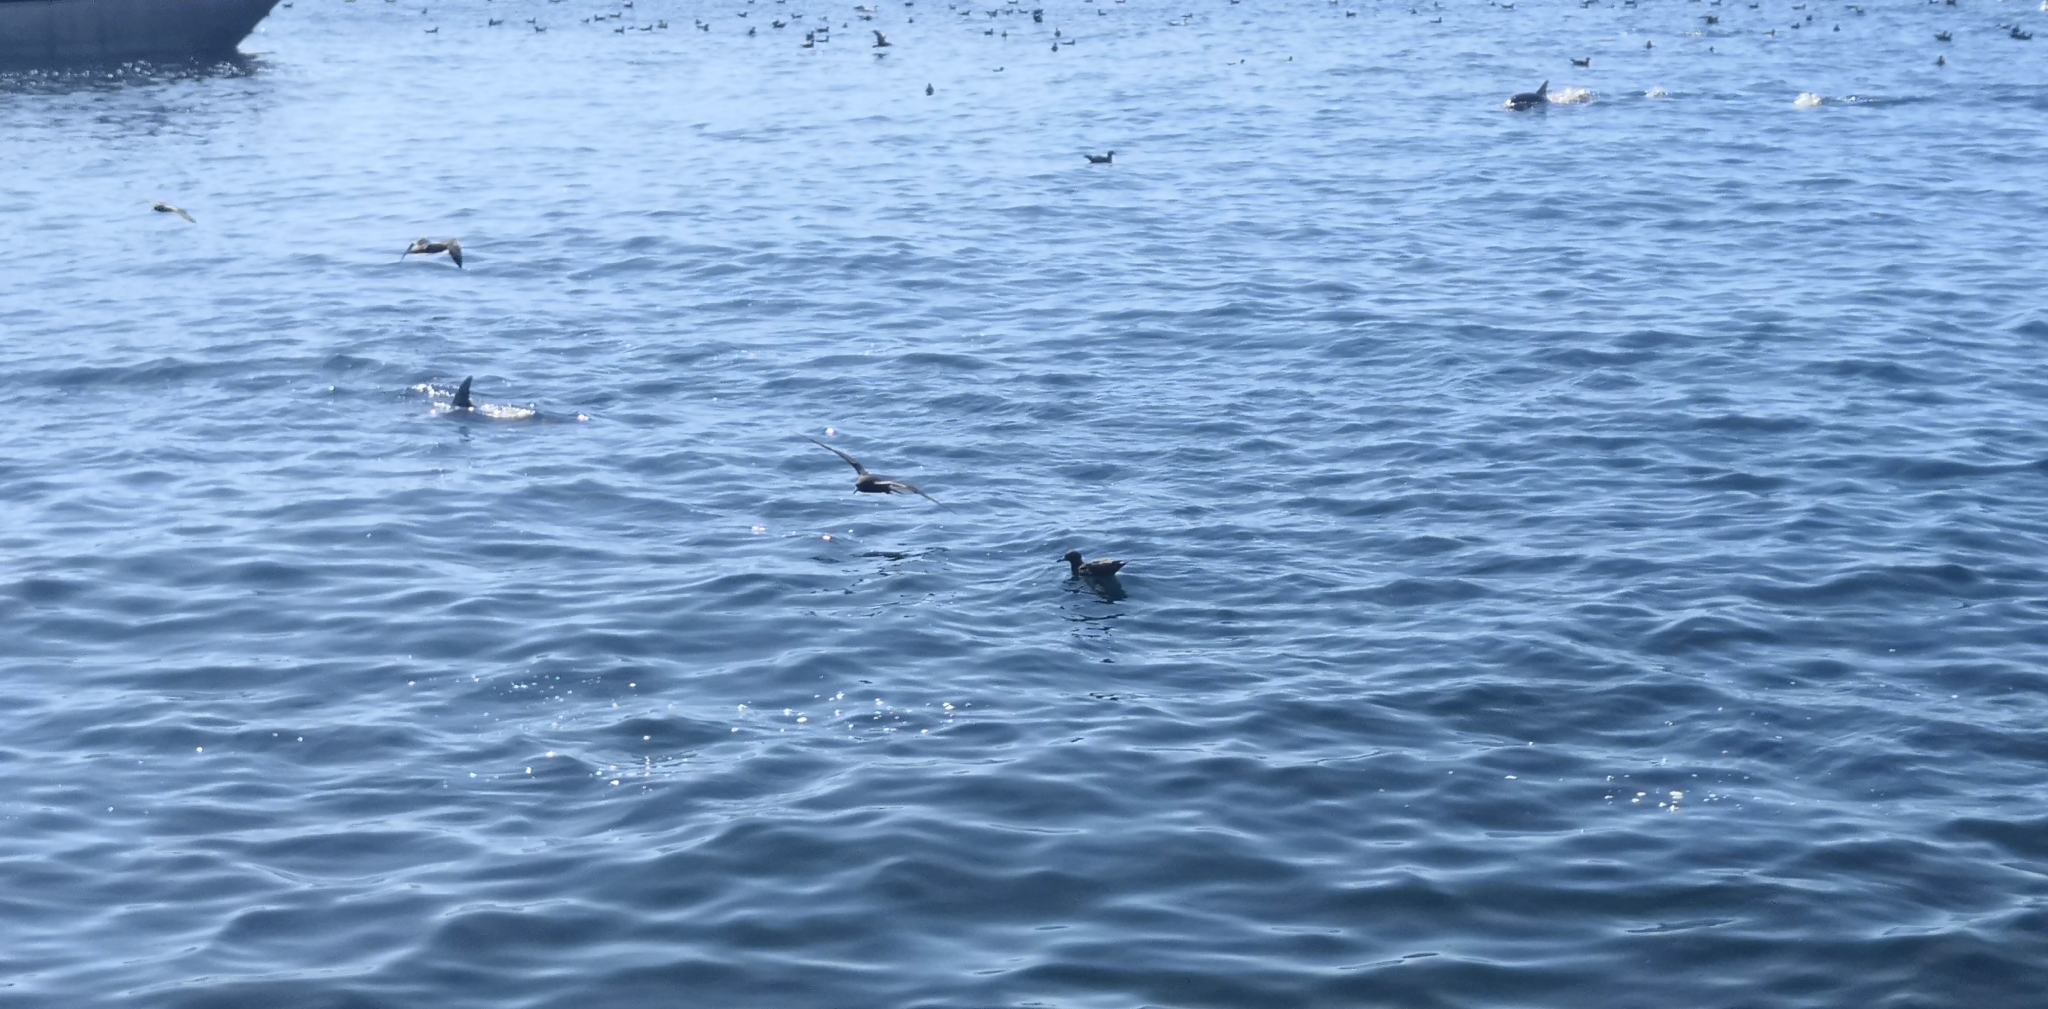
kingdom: Animalia
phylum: Chordata
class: Aves
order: Procellariiformes
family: Procellariidae
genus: Puffinus
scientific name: Puffinus carneipes
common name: Flesh-footed shearwater
